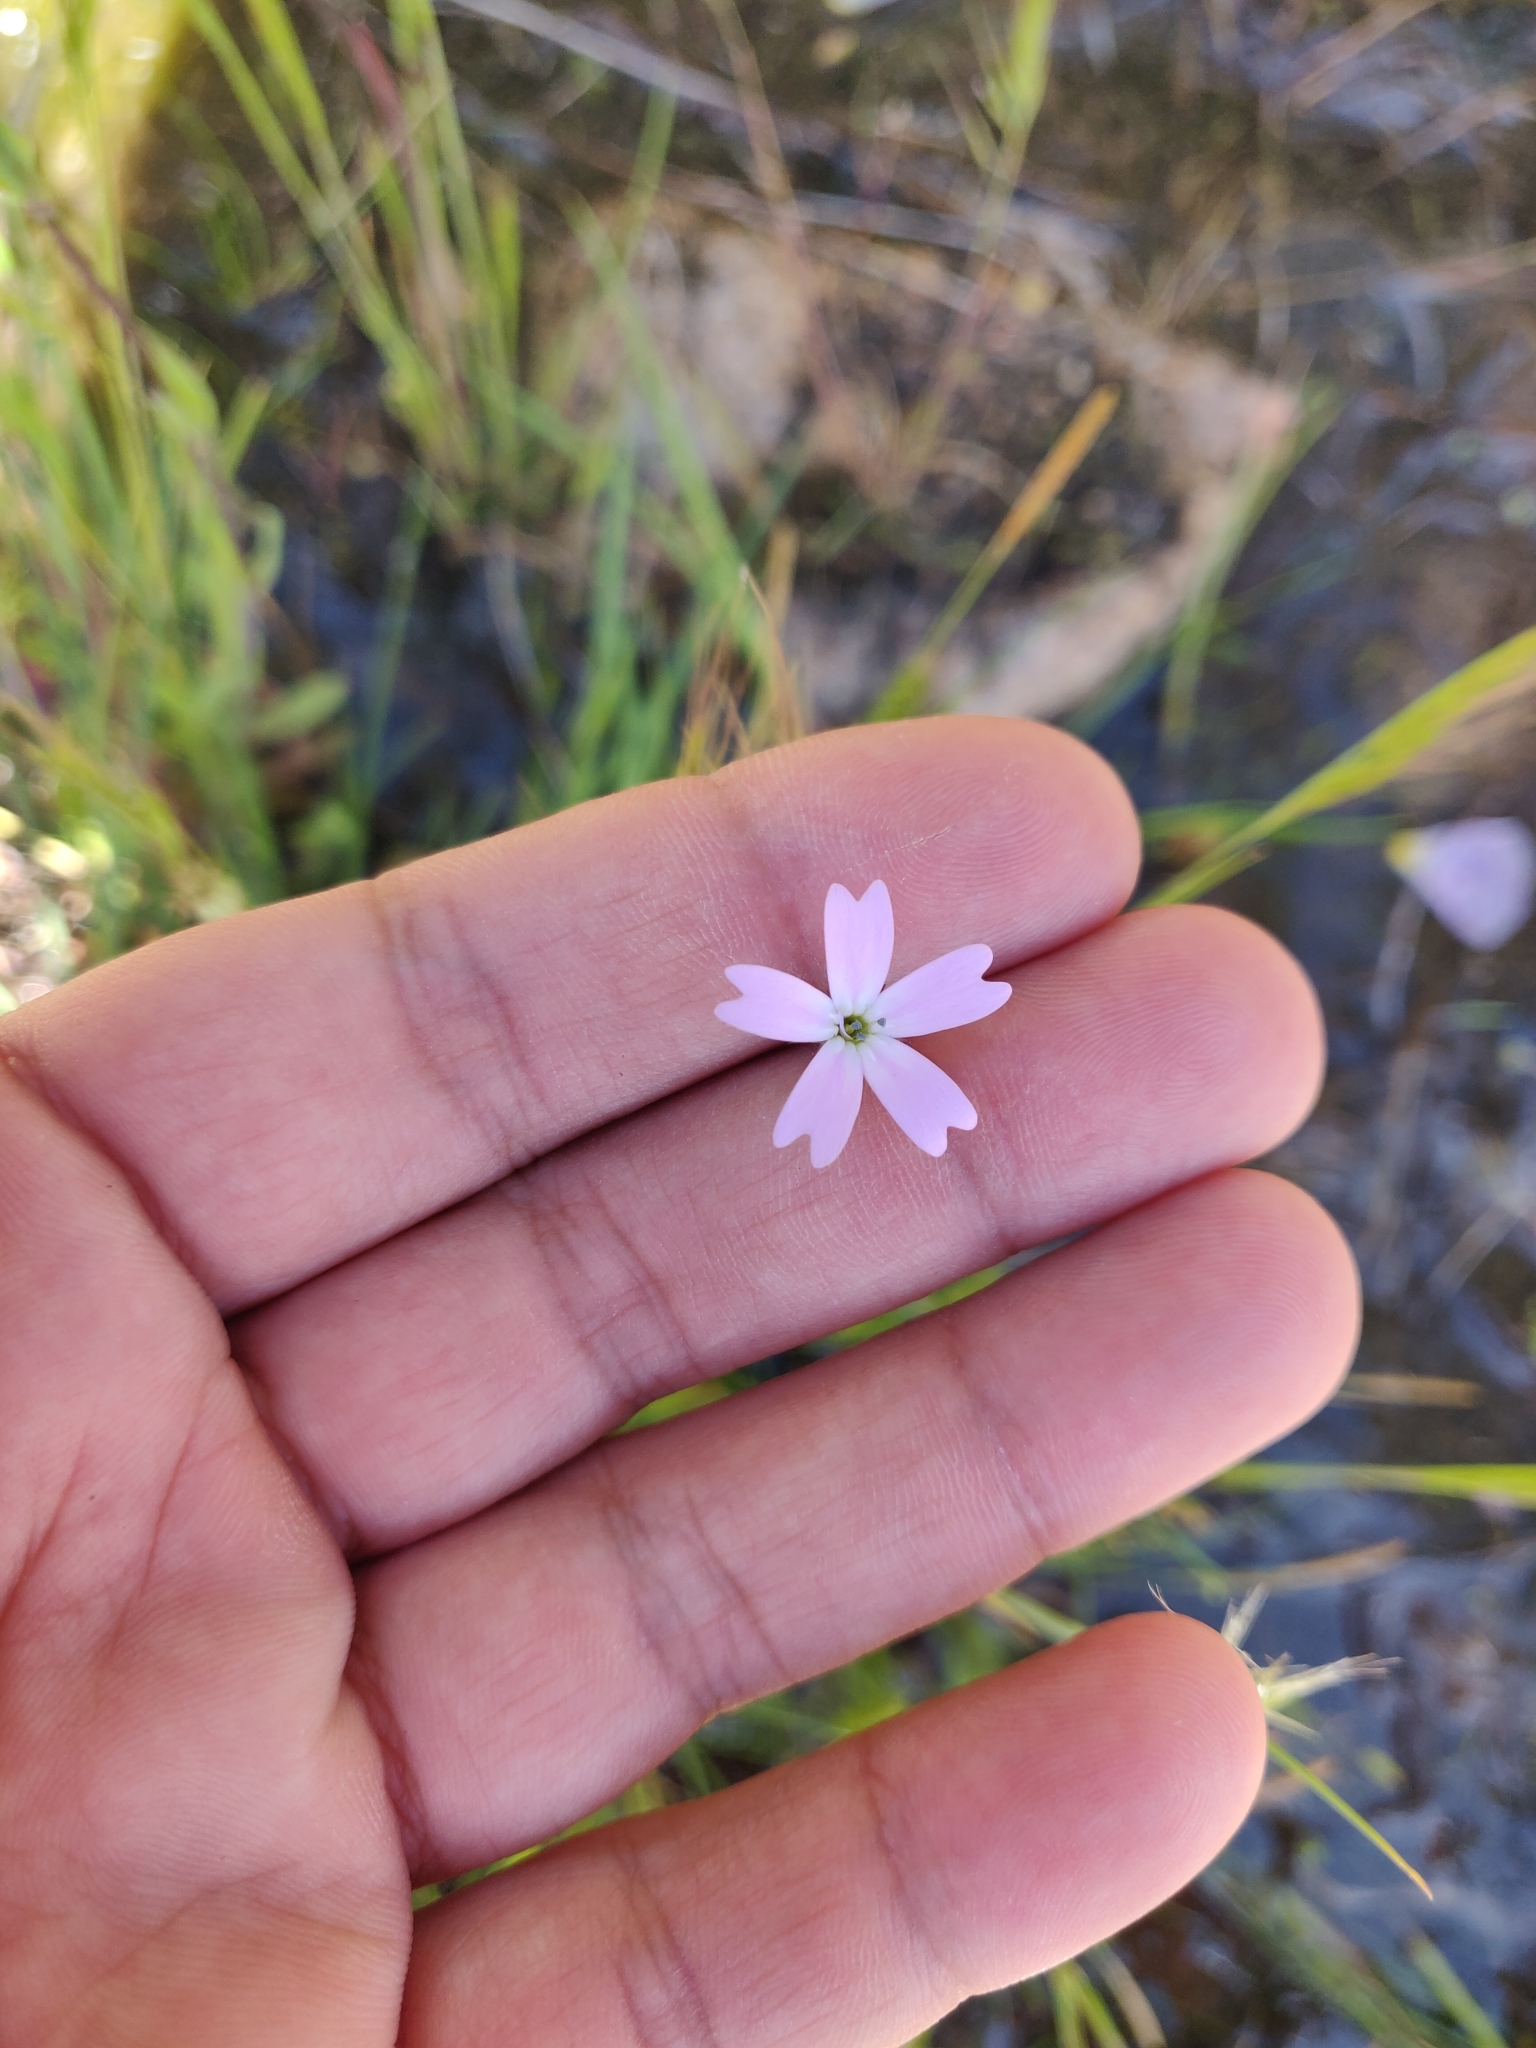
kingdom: Plantae
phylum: Tracheophyta
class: Magnoliopsida
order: Caryophyllales
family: Caryophyllaceae
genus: Eudianthe
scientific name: Eudianthe laeta
